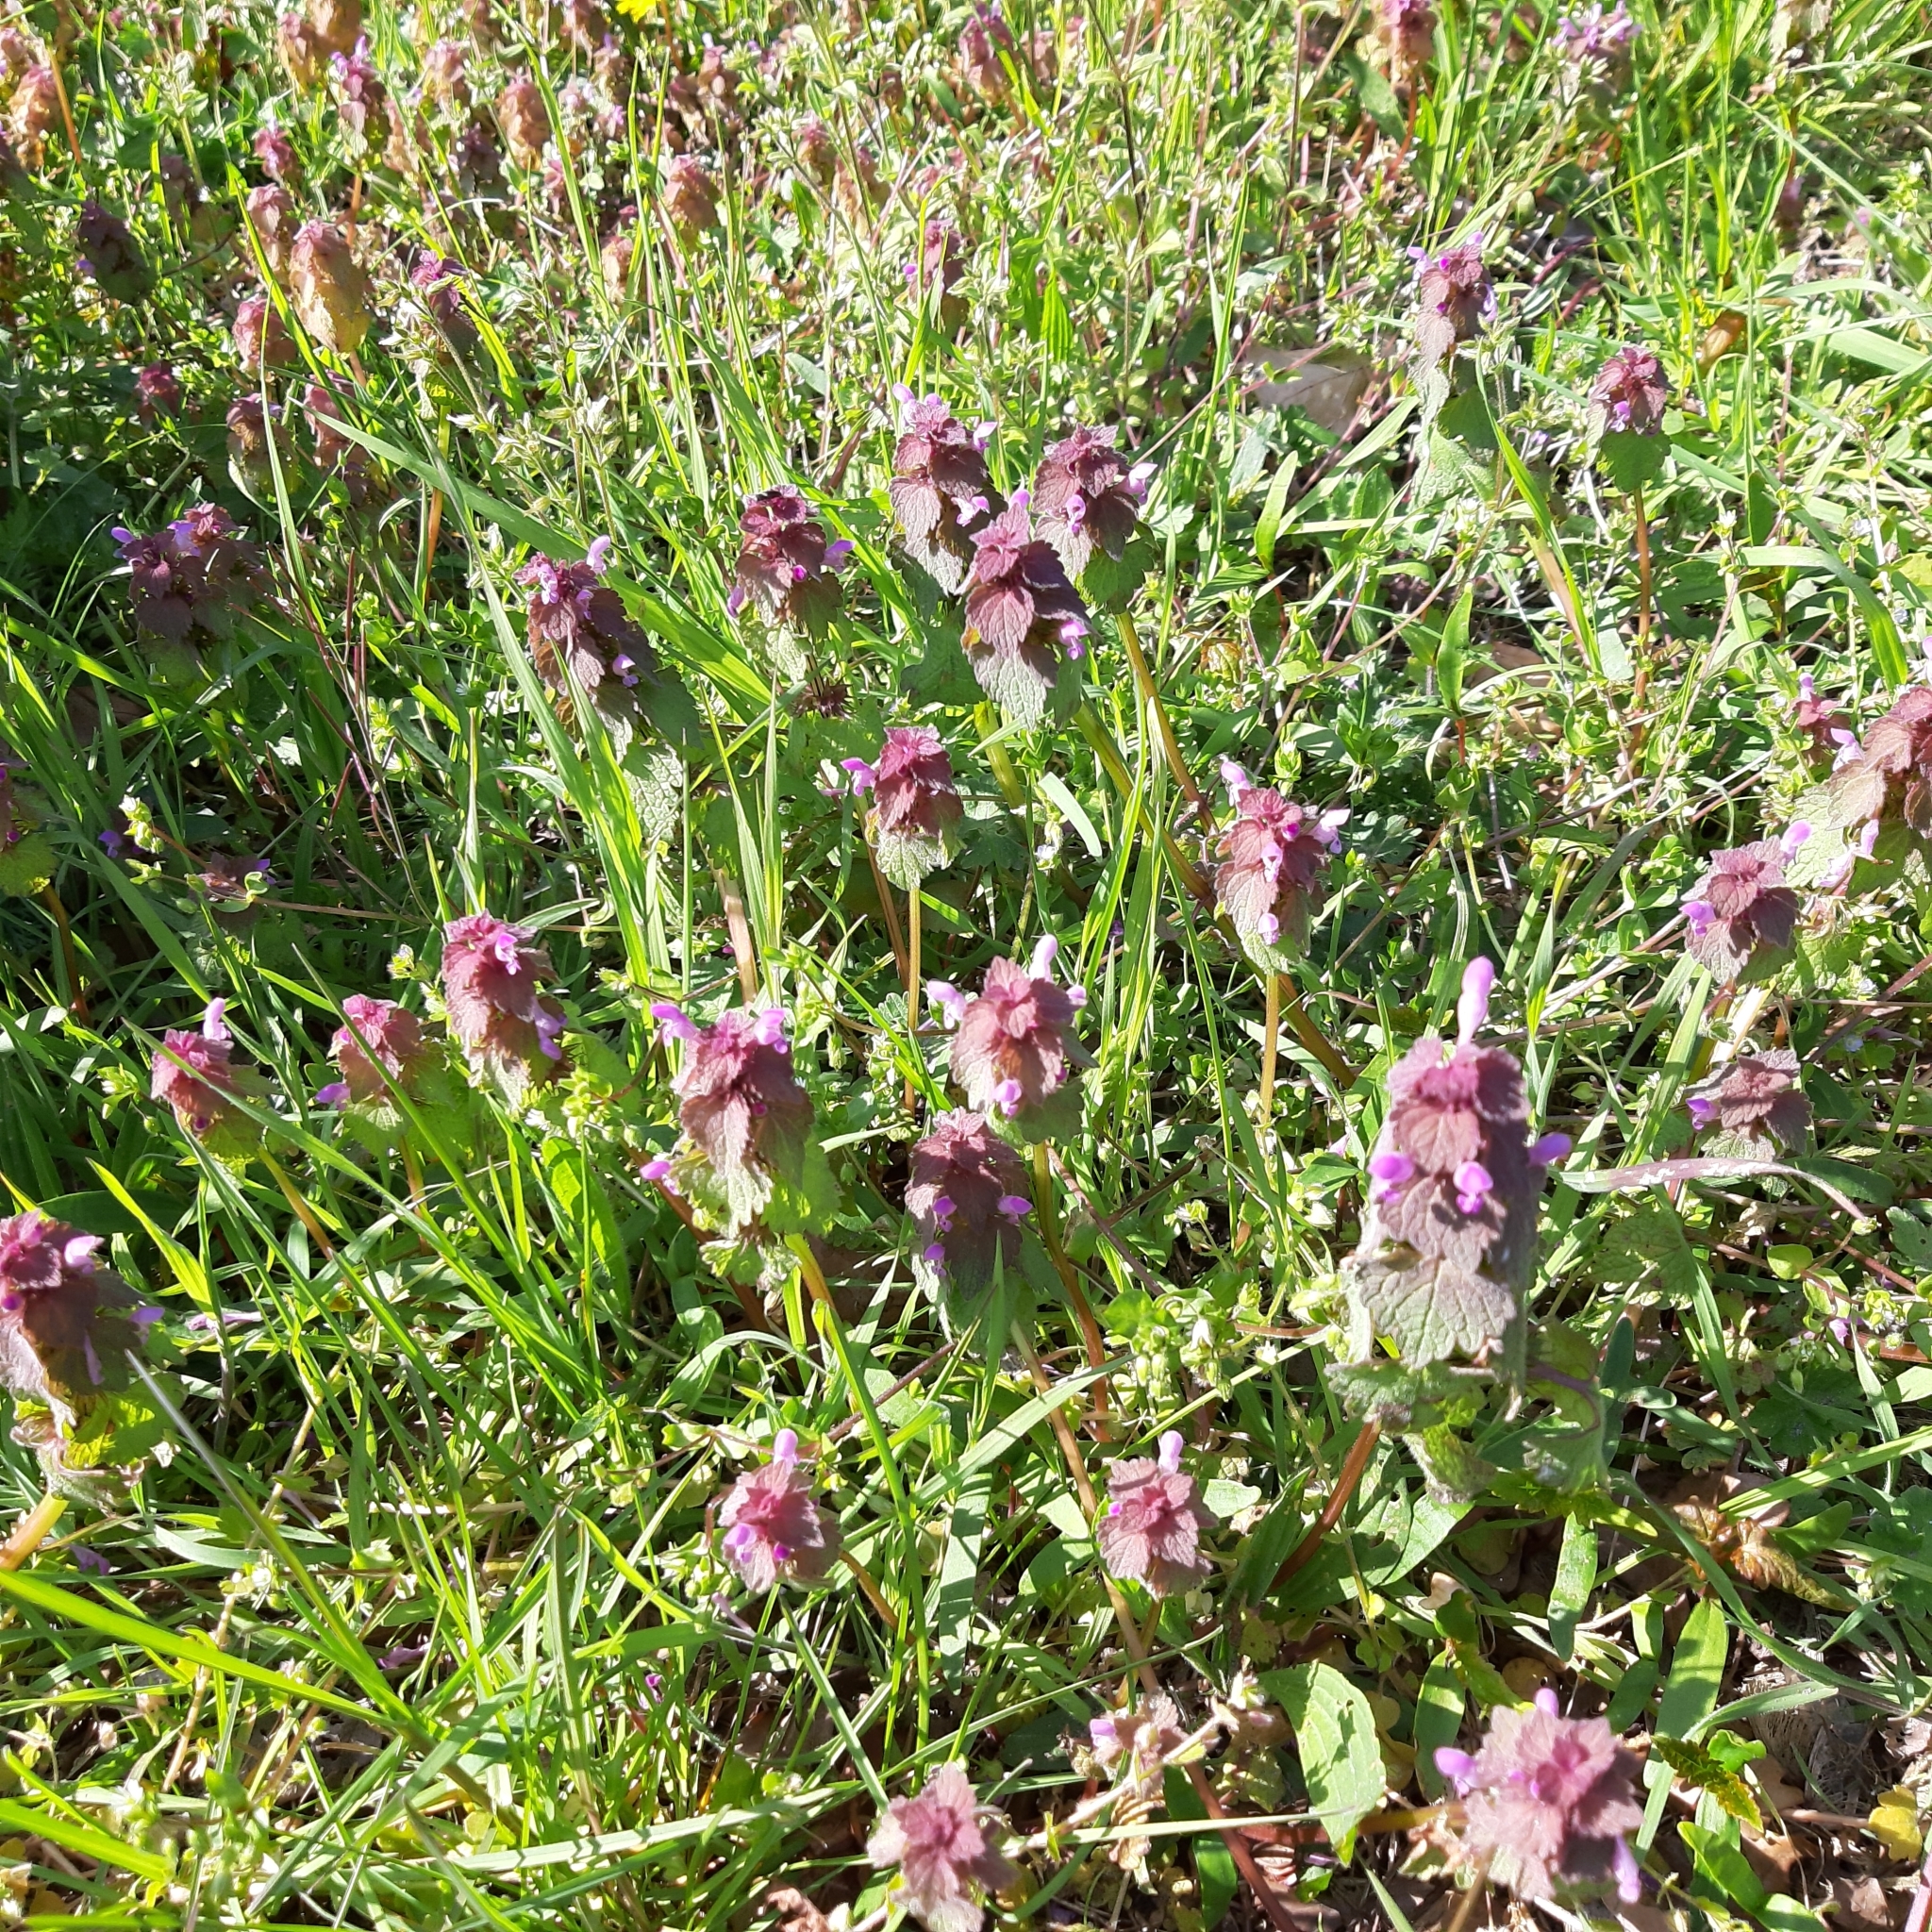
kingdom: Plantae
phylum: Tracheophyta
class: Magnoliopsida
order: Lamiales
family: Lamiaceae
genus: Lamium
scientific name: Lamium purpureum
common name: Red dead-nettle
